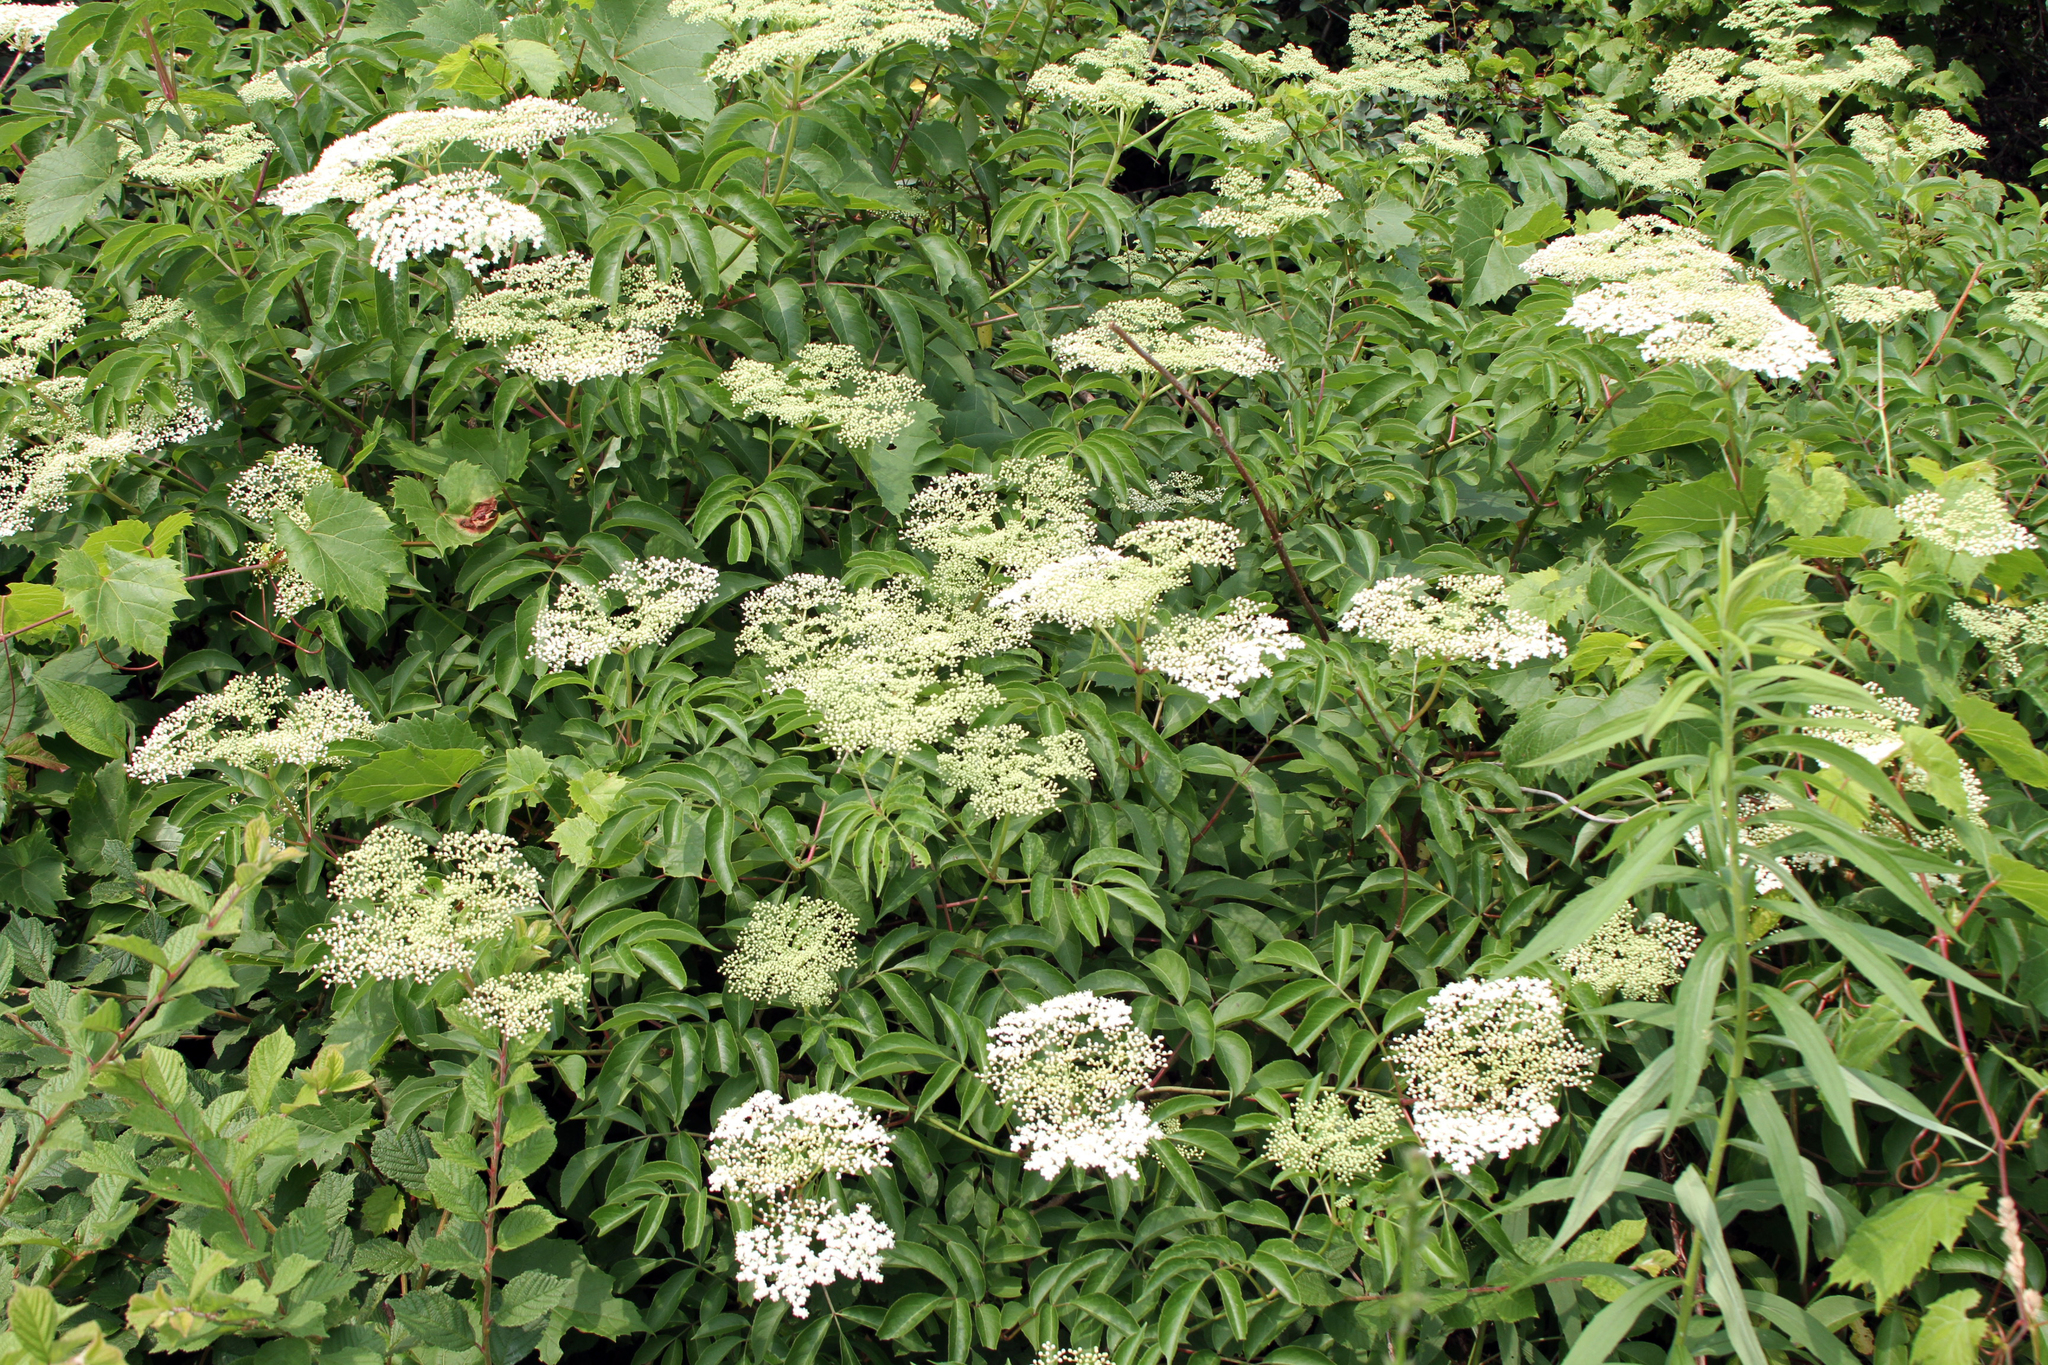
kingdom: Plantae
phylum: Tracheophyta
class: Magnoliopsida
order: Dipsacales
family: Viburnaceae
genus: Sambucus
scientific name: Sambucus canadensis
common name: American elder
